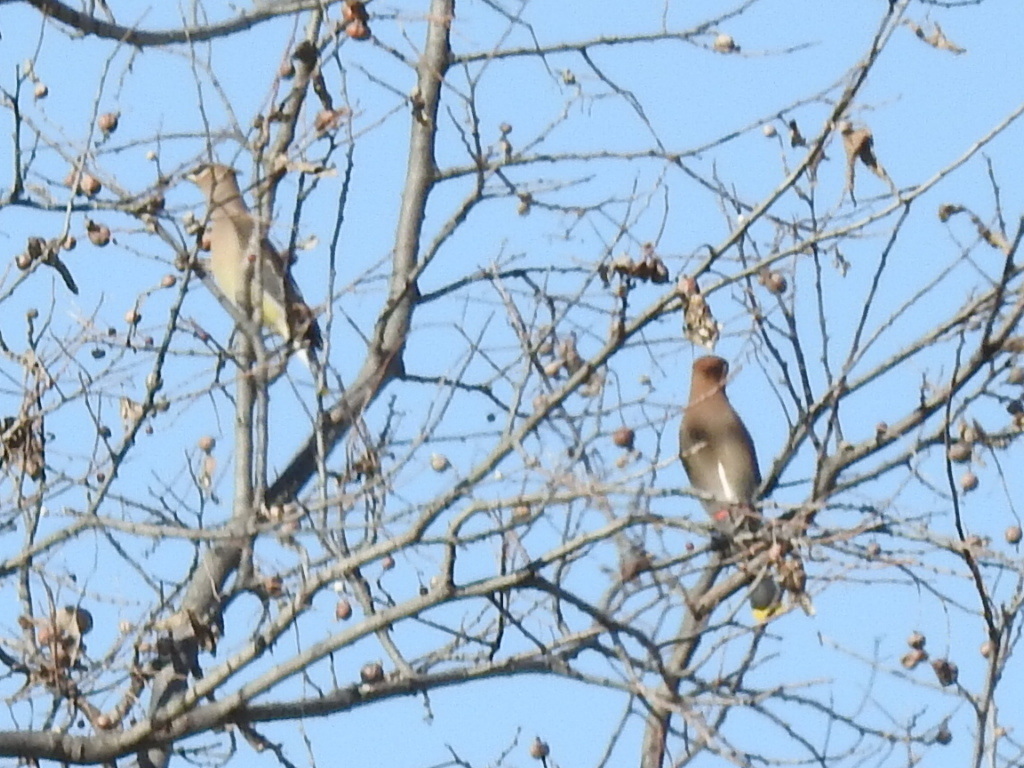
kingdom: Animalia
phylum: Chordata
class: Aves
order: Passeriformes
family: Bombycillidae
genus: Bombycilla
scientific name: Bombycilla cedrorum
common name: Cedar waxwing
